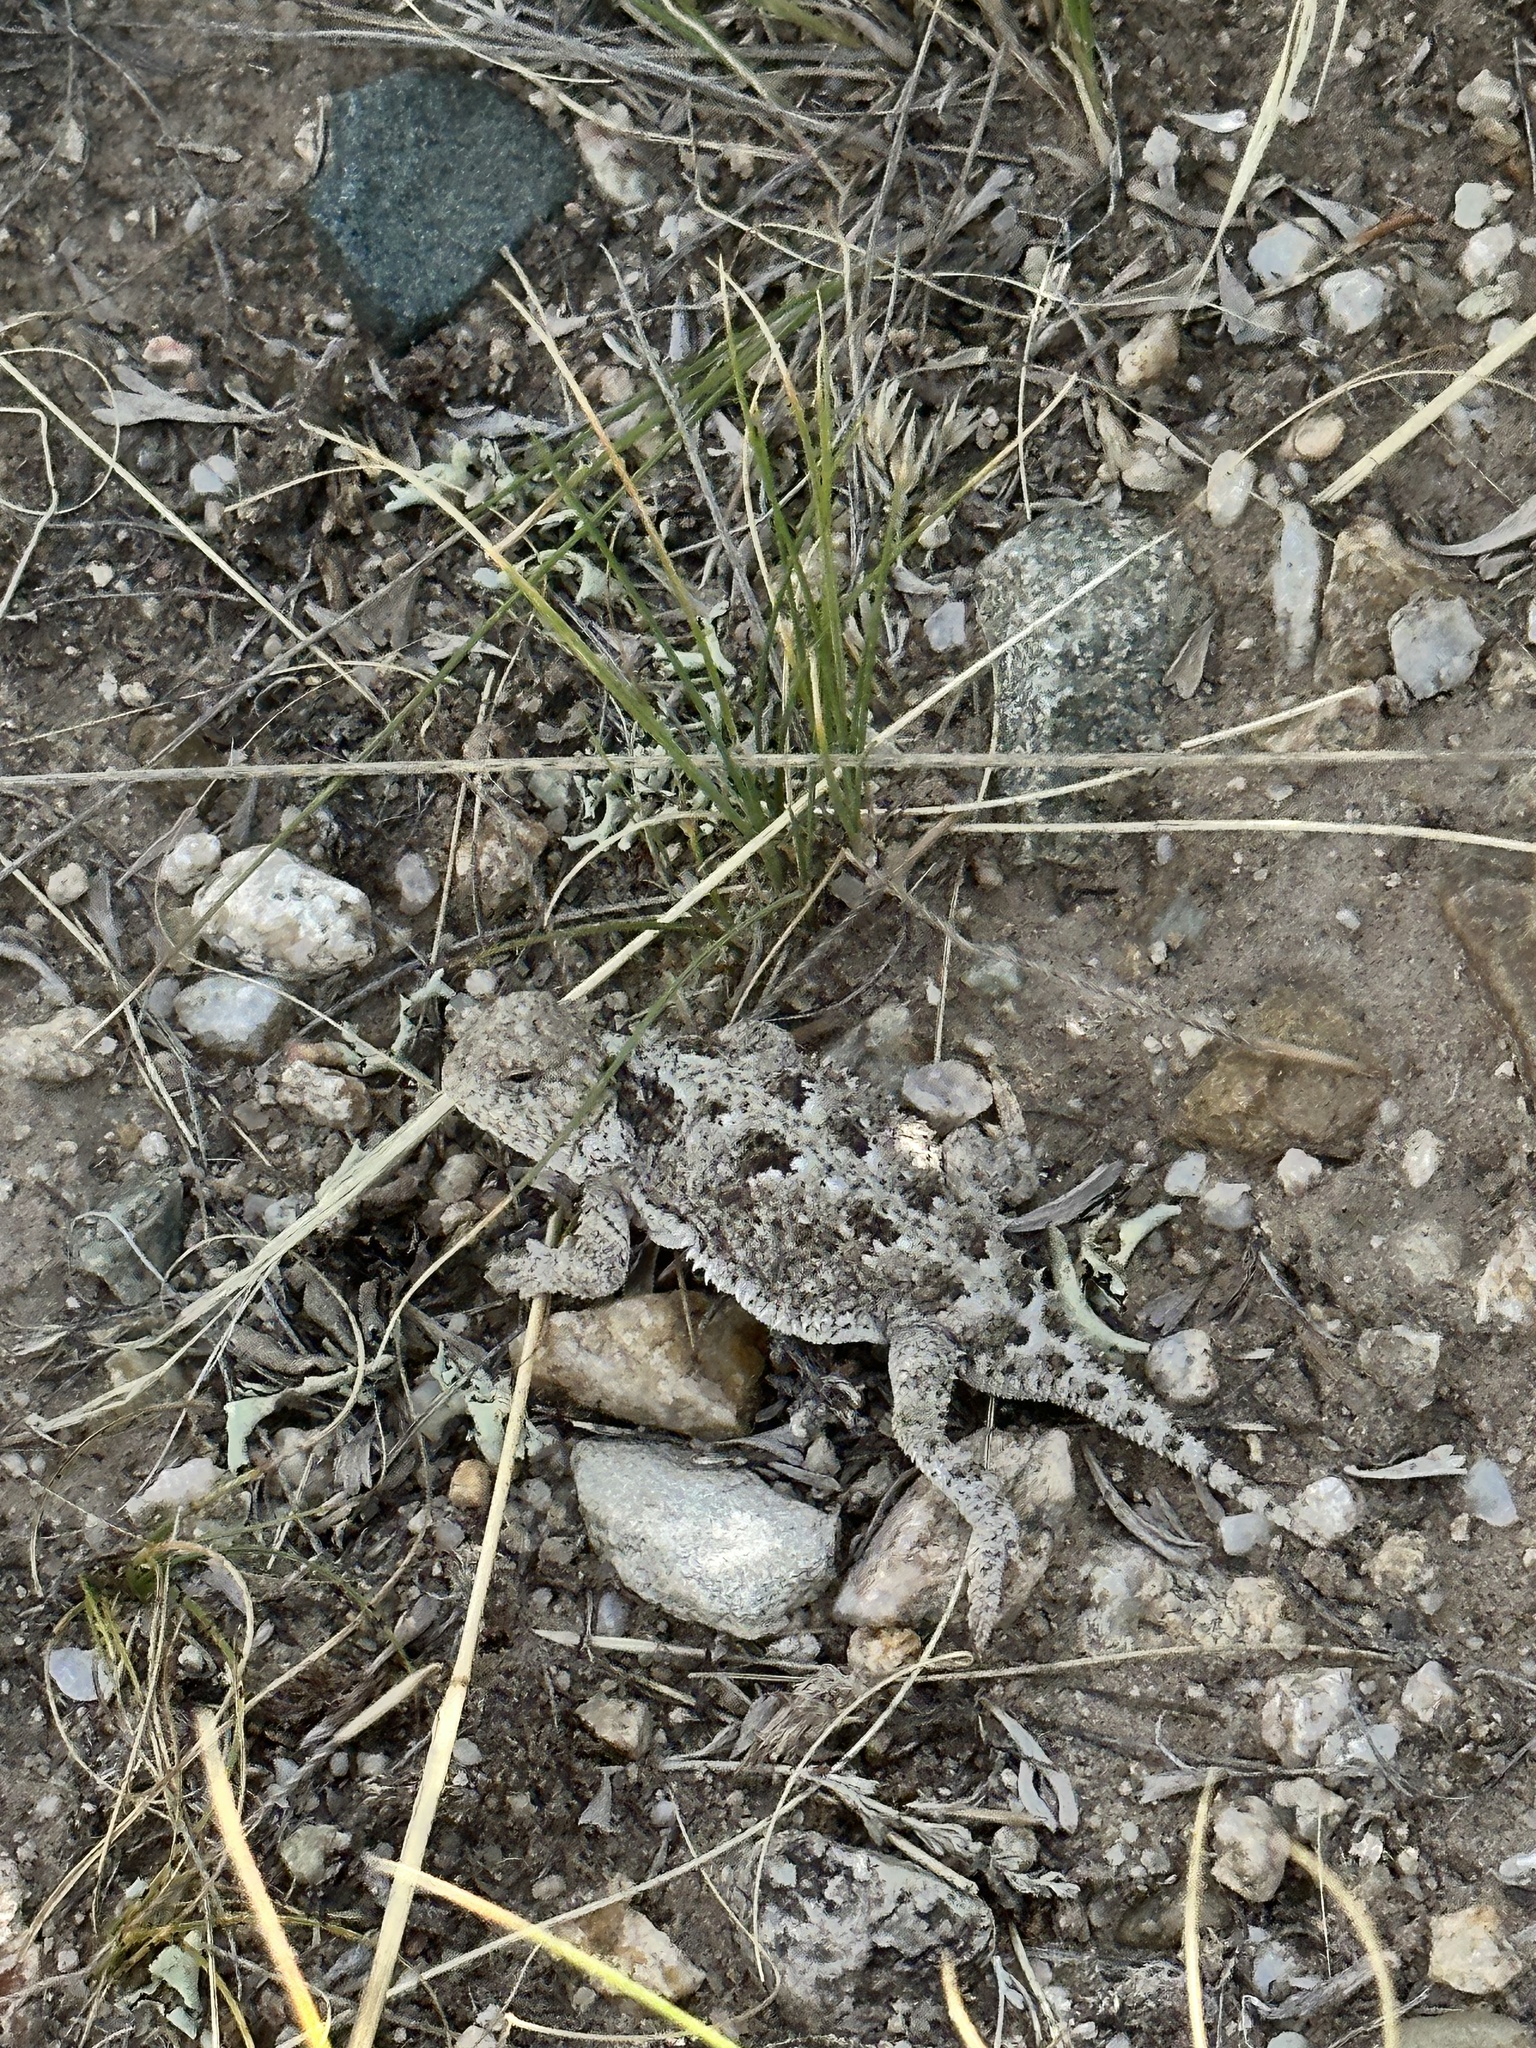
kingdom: Animalia
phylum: Chordata
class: Squamata
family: Phrynosomatidae
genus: Phrynosoma
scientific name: Phrynosoma hernandesi
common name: Greater short-horned lizard
